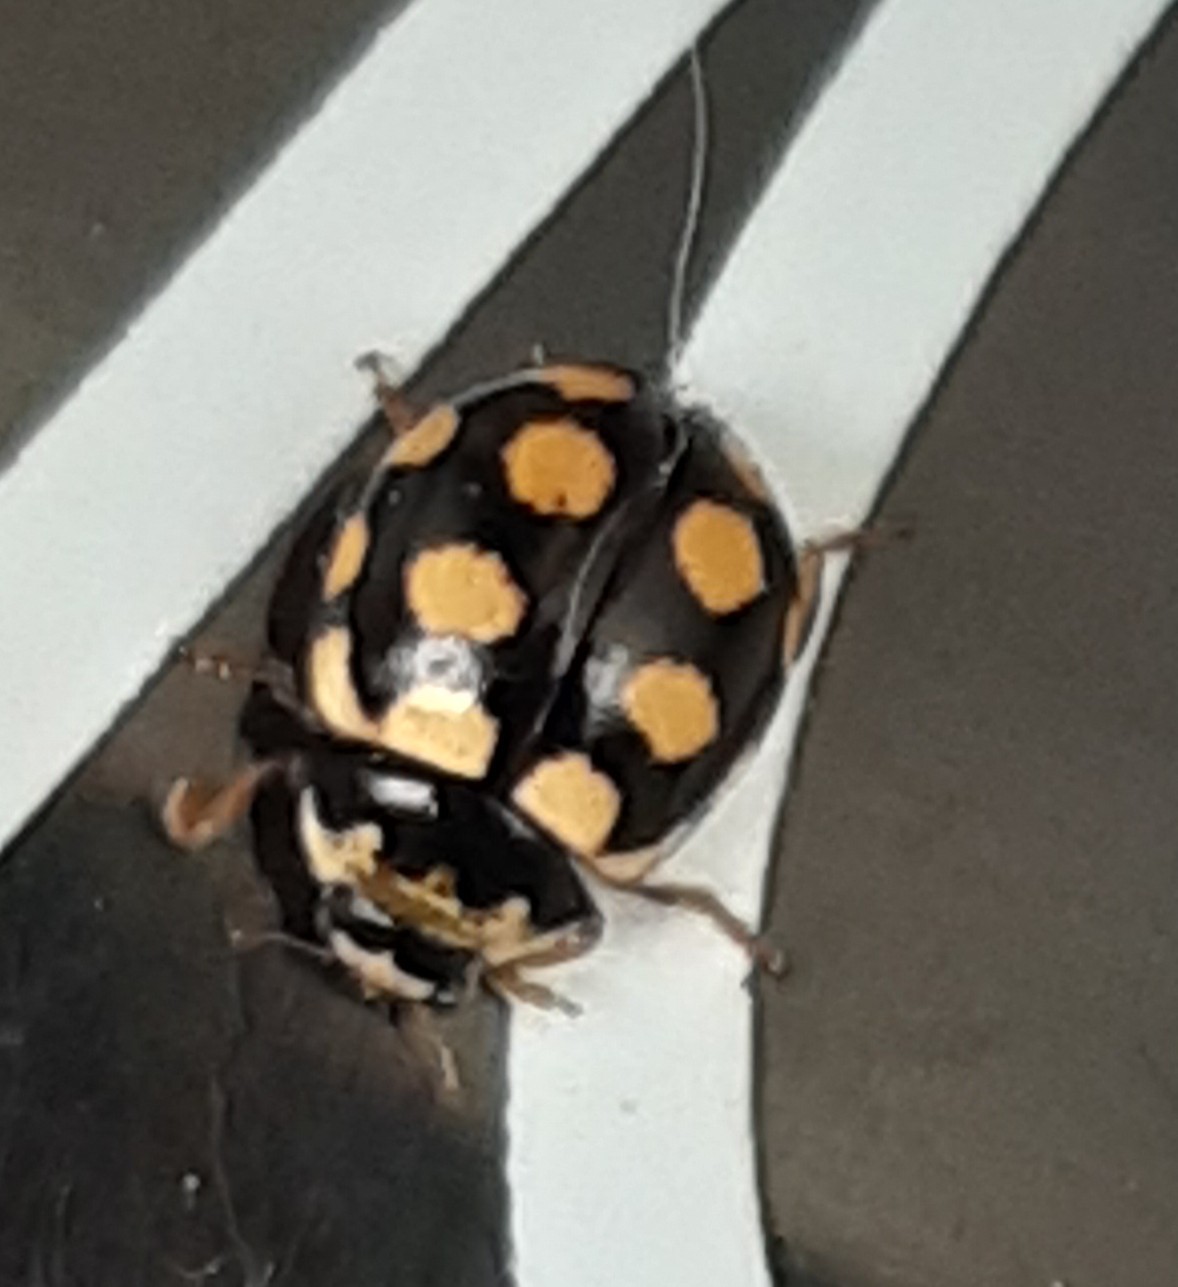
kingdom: Animalia
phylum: Arthropoda
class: Insecta
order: Coleoptera
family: Coccinellidae
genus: Coccinula
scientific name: Coccinula quatuordecimpustulata
